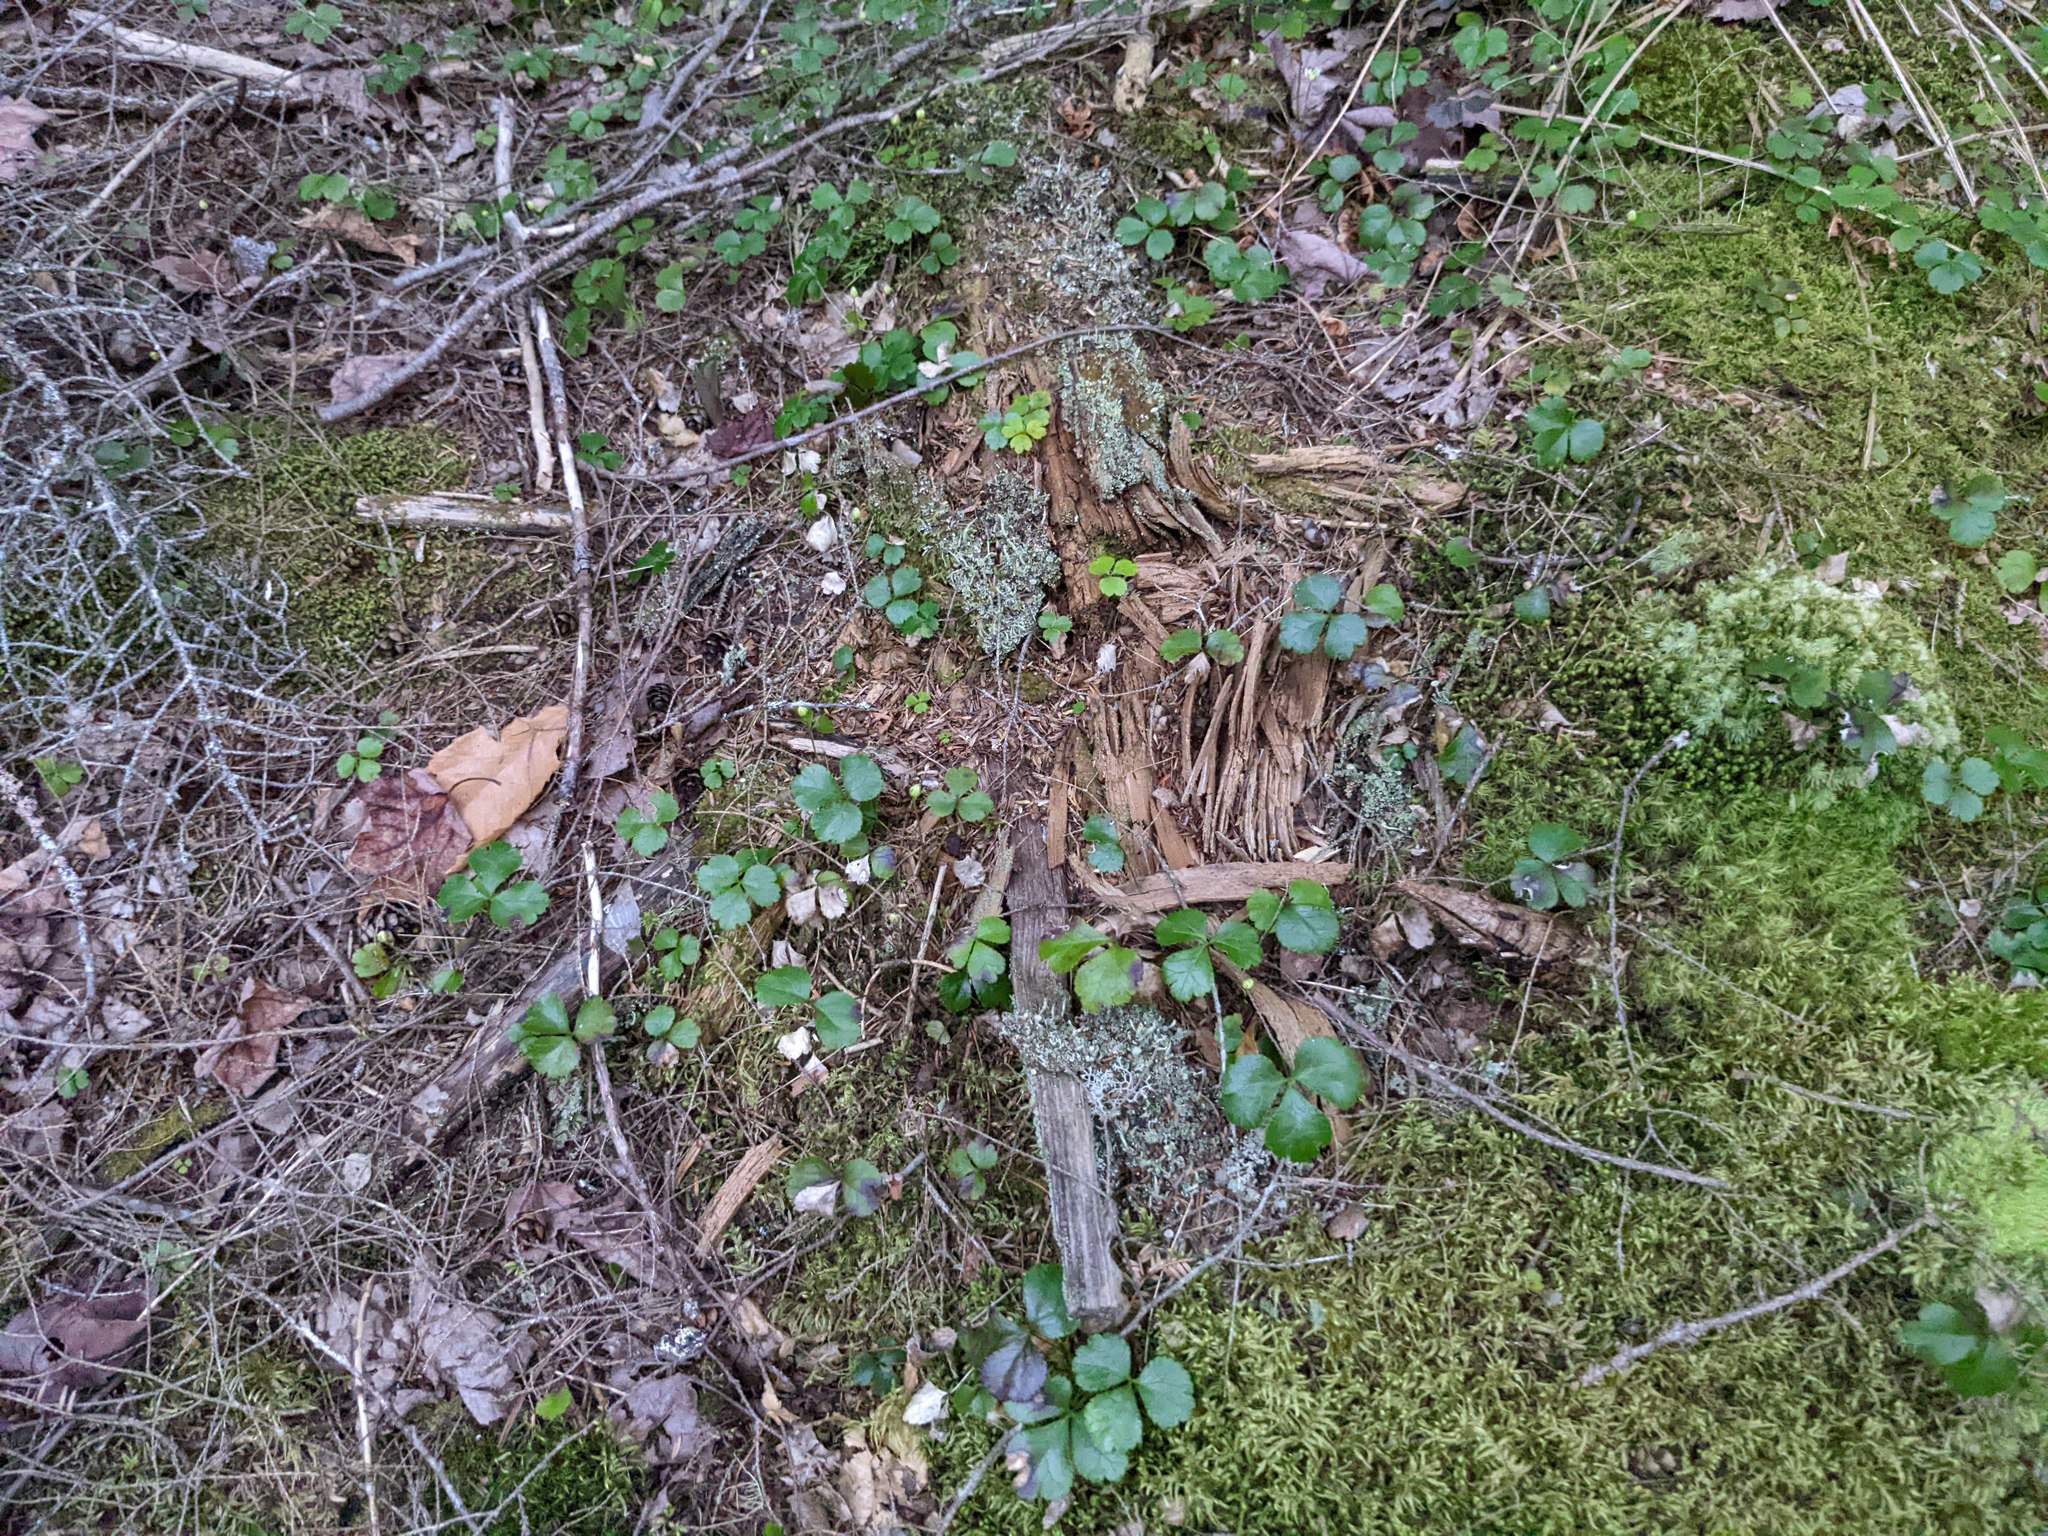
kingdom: Plantae
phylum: Tracheophyta
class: Magnoliopsida
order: Ranunculales
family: Ranunculaceae
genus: Coptis
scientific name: Coptis trifolia
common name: Canker-root
